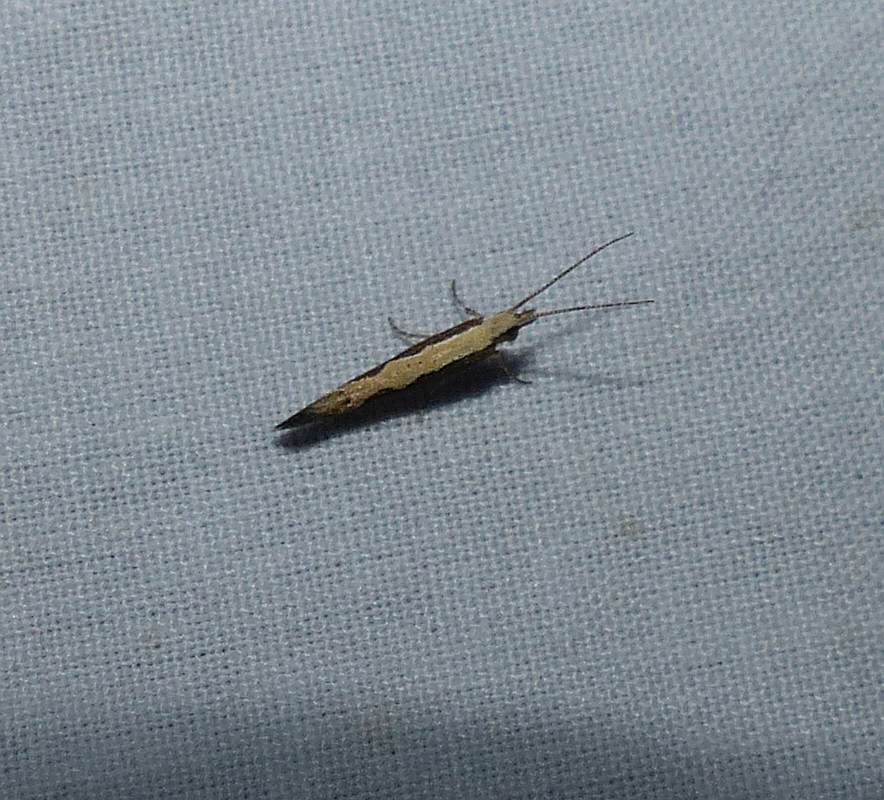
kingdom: Animalia
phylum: Arthropoda
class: Insecta
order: Lepidoptera
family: Plutellidae
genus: Plutella
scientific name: Plutella xylostella
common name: Diamond-back moth
